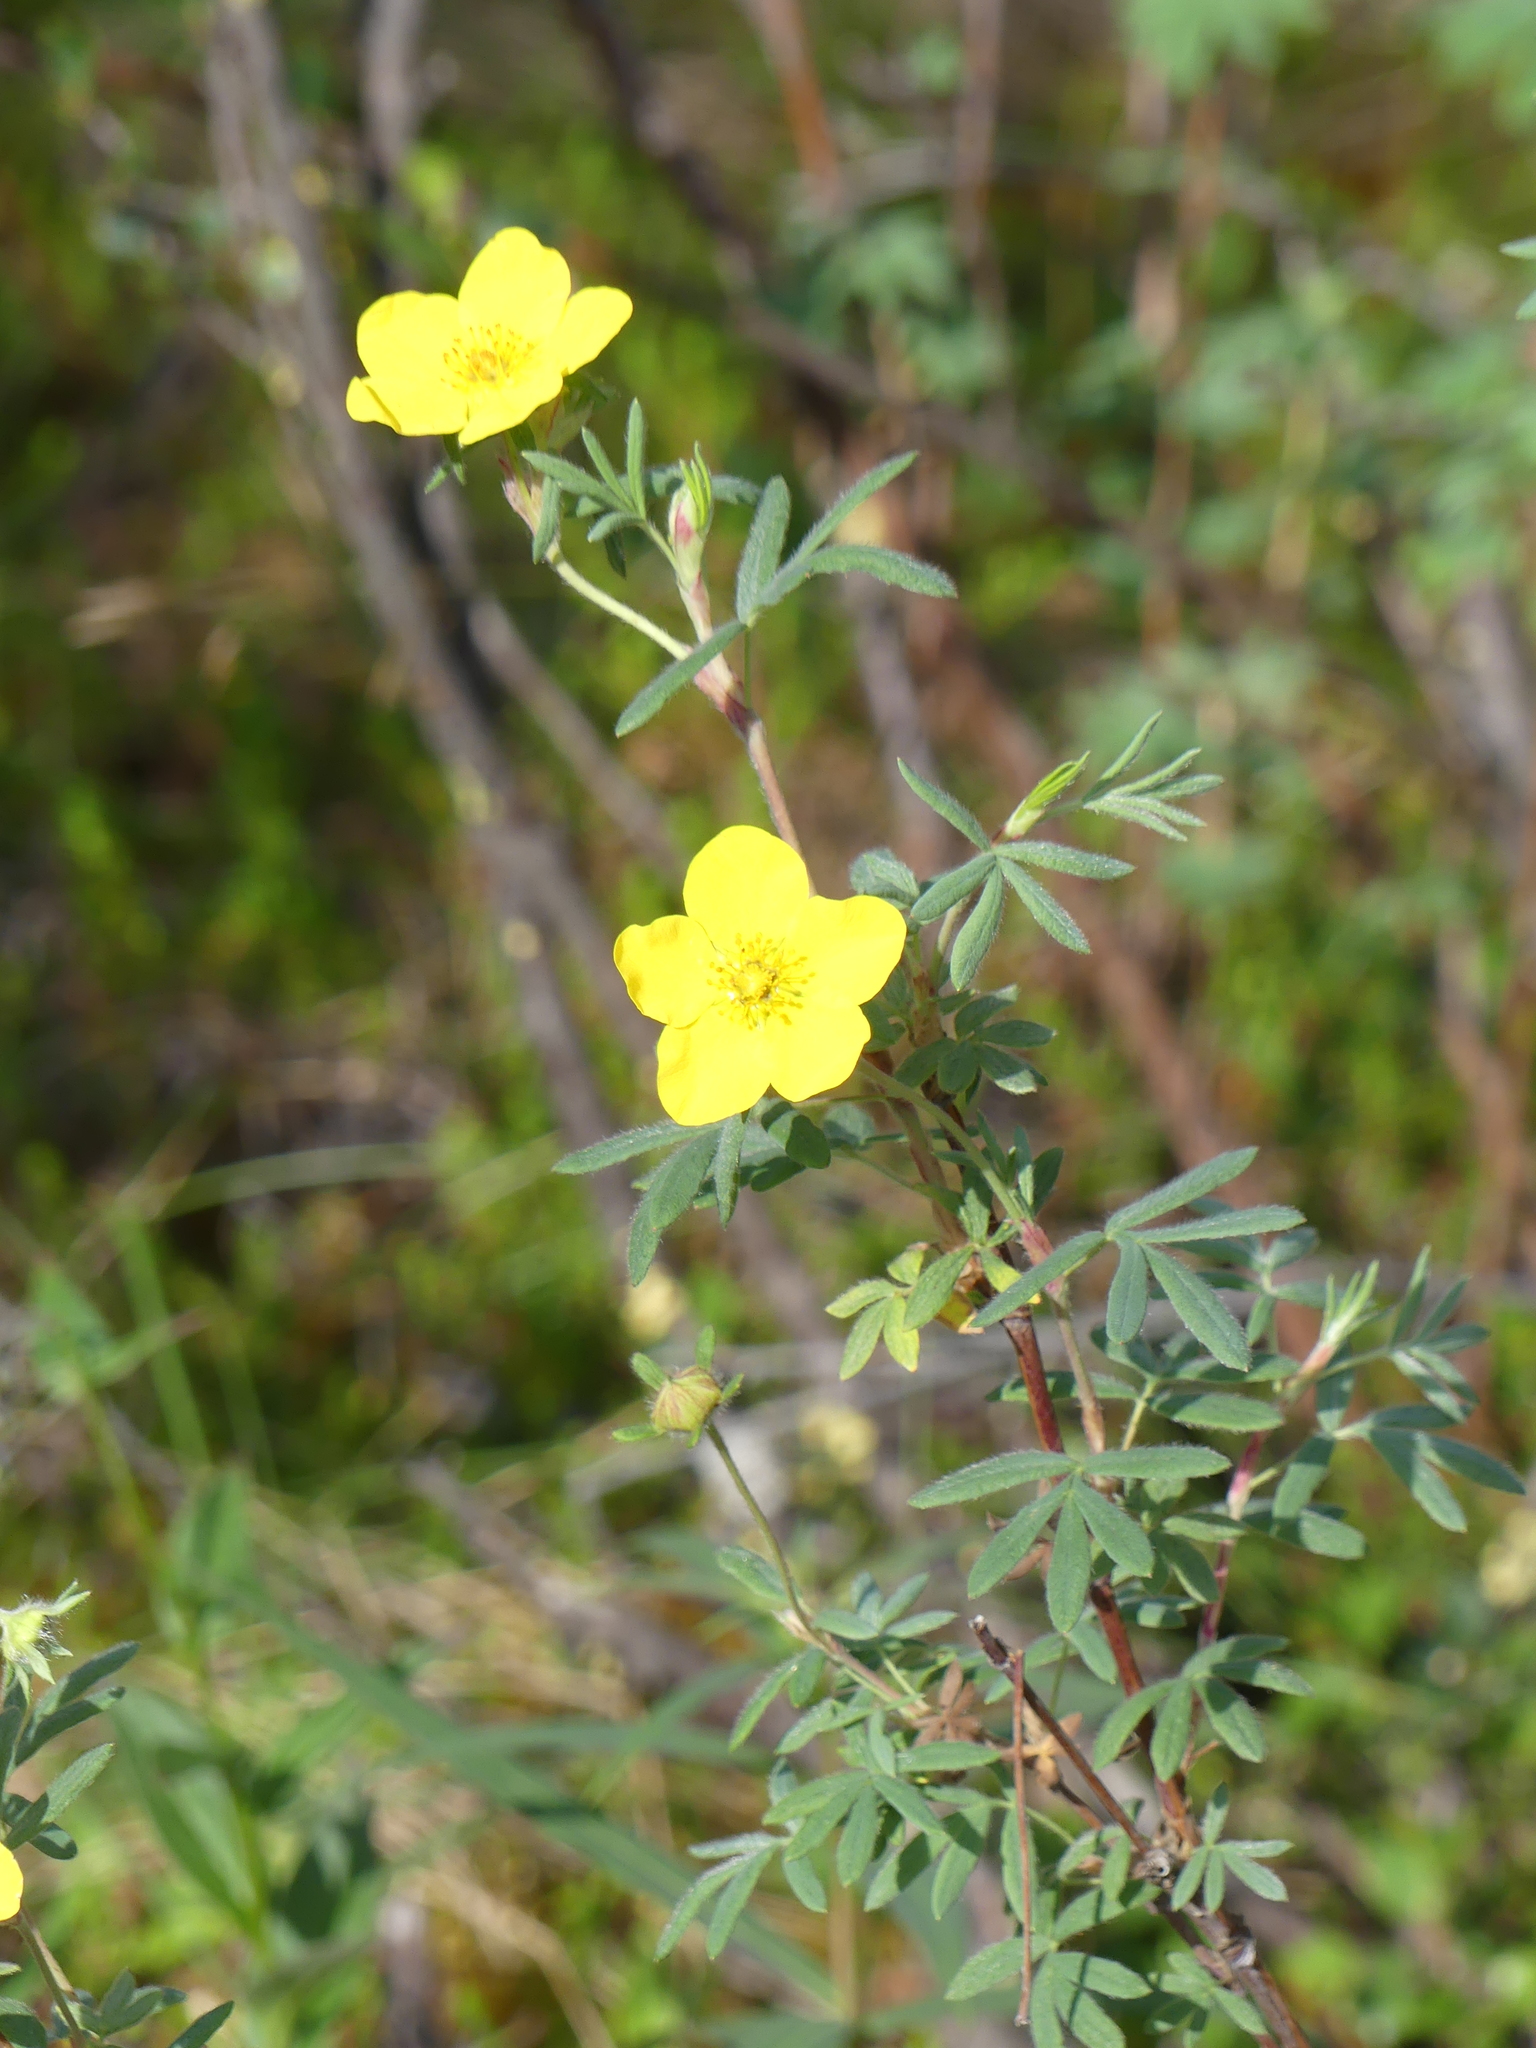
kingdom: Plantae
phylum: Tracheophyta
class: Magnoliopsida
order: Rosales
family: Rosaceae
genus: Dasiphora
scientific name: Dasiphora fruticosa
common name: Shrubby cinquefoil
